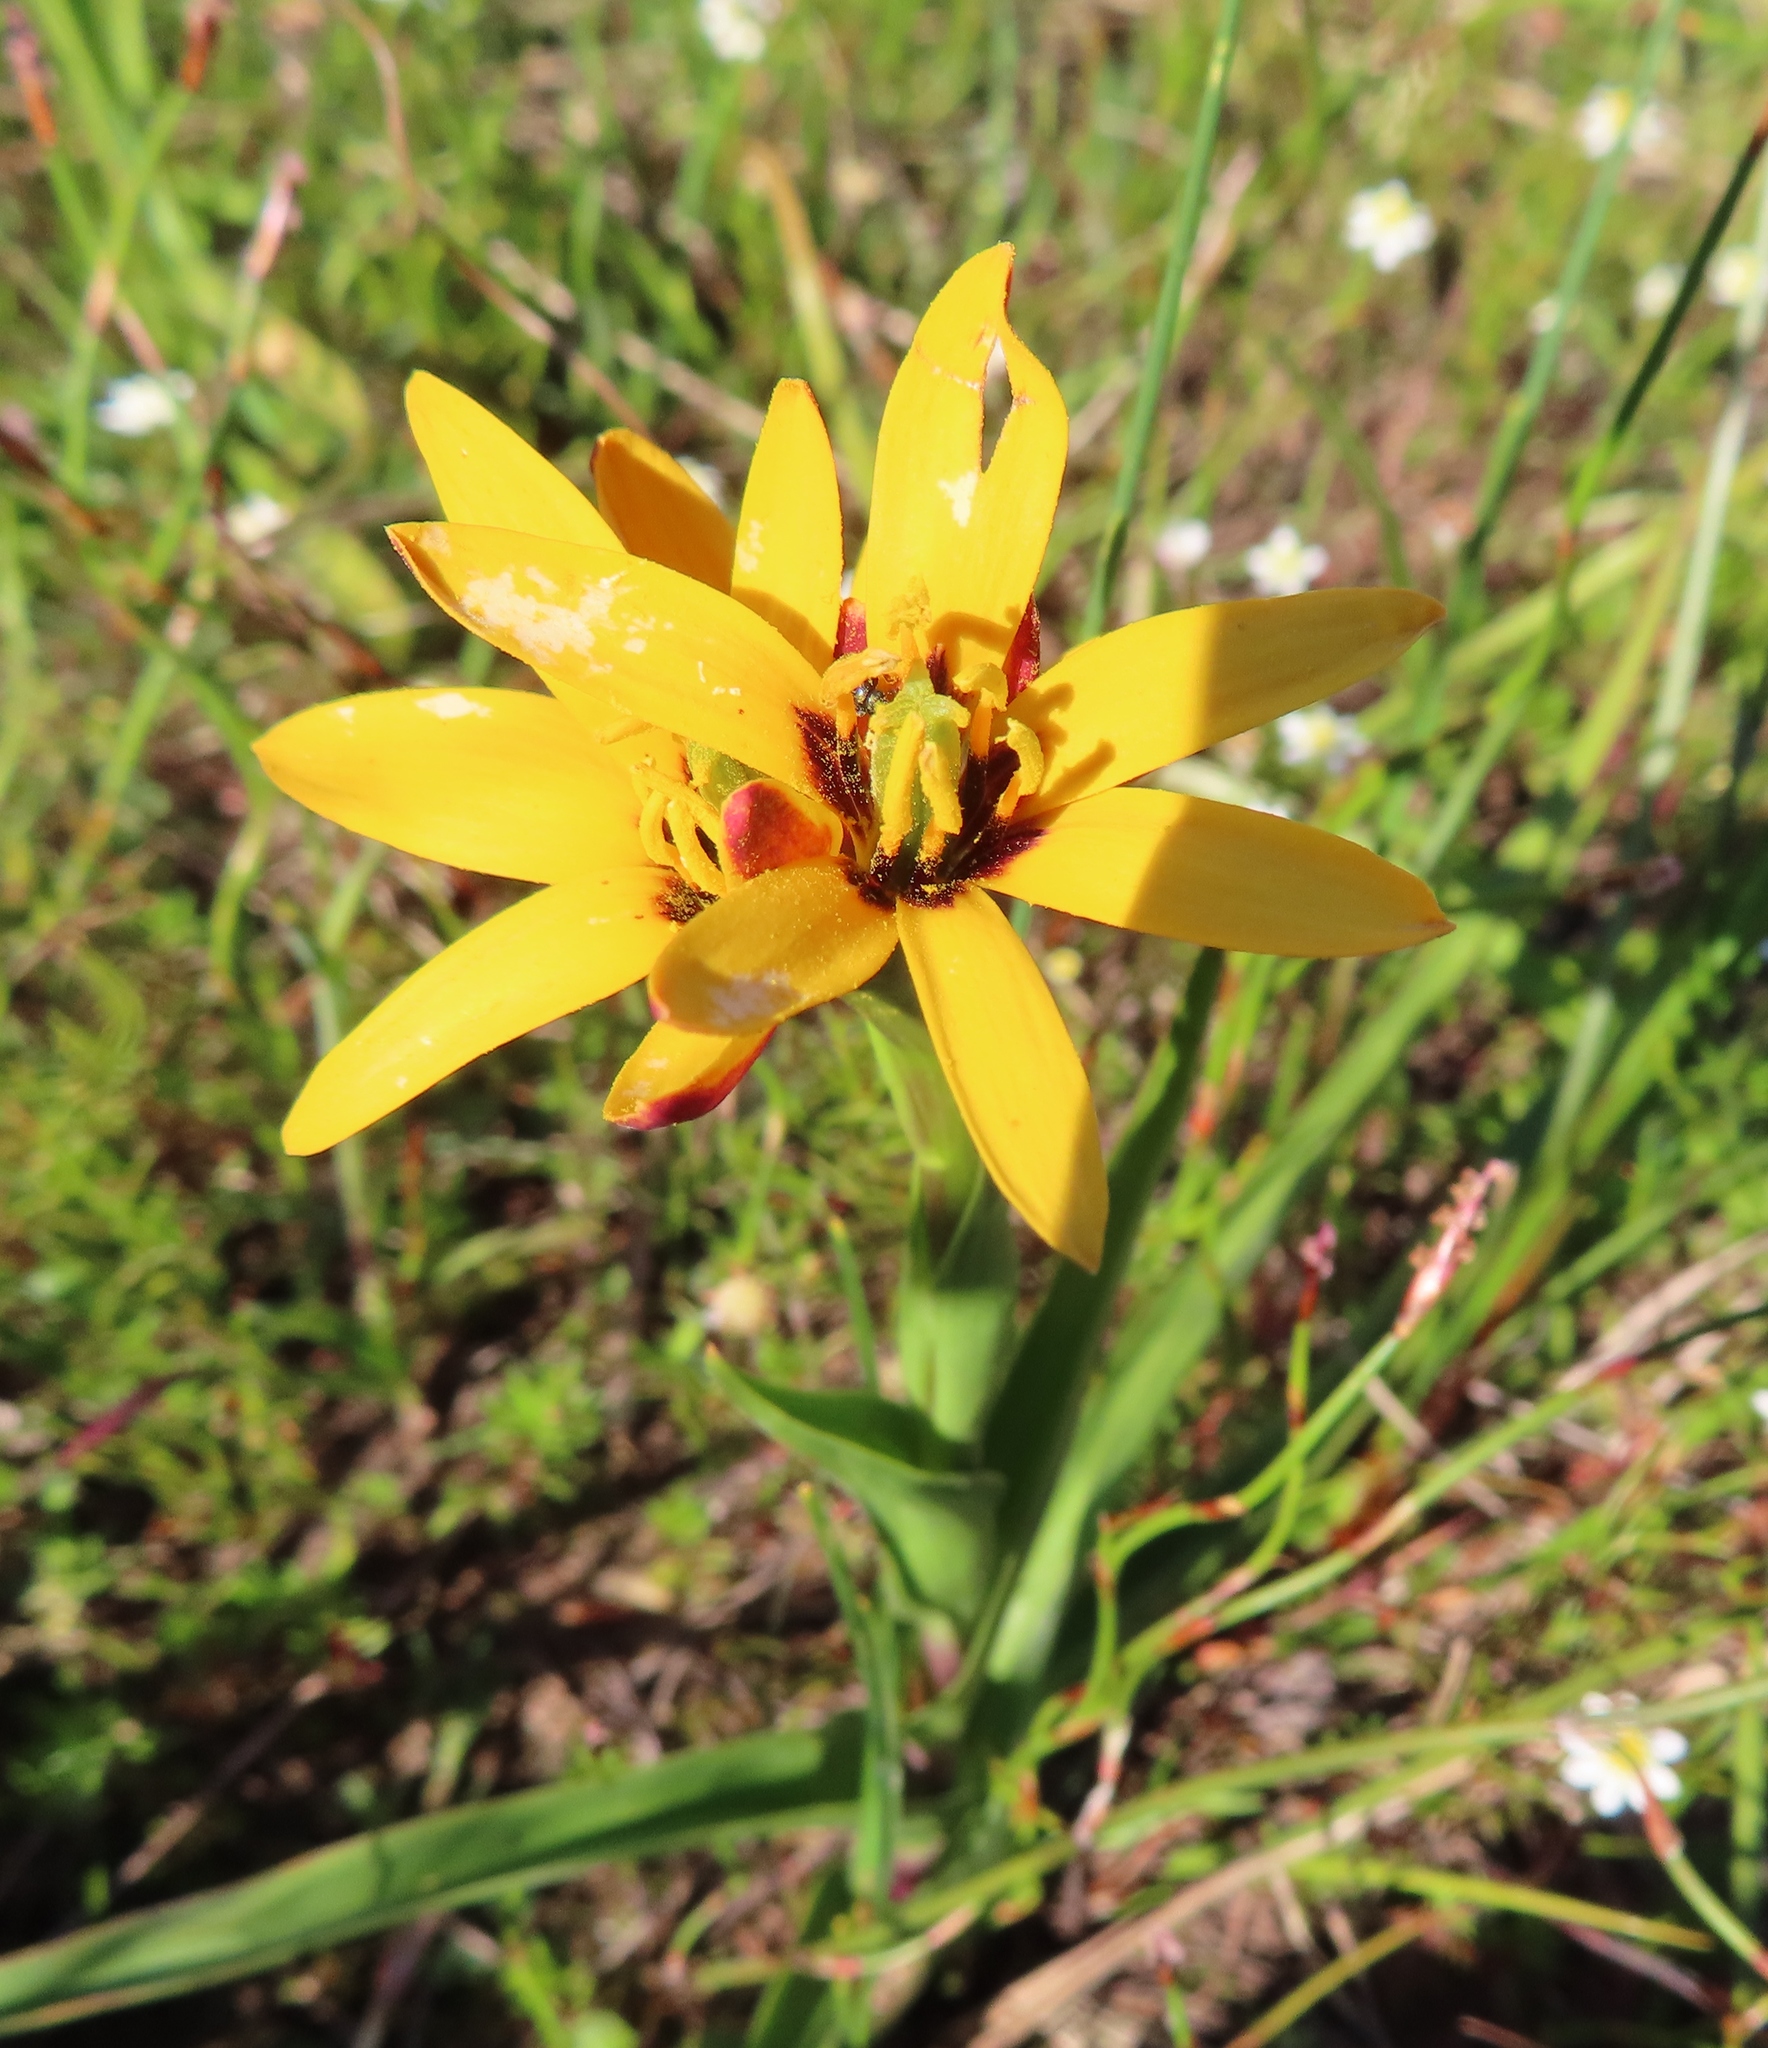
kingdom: Plantae
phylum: Tracheophyta
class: Liliopsida
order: Liliales
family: Colchicaceae
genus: Baeometra
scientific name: Baeometra uniflora
